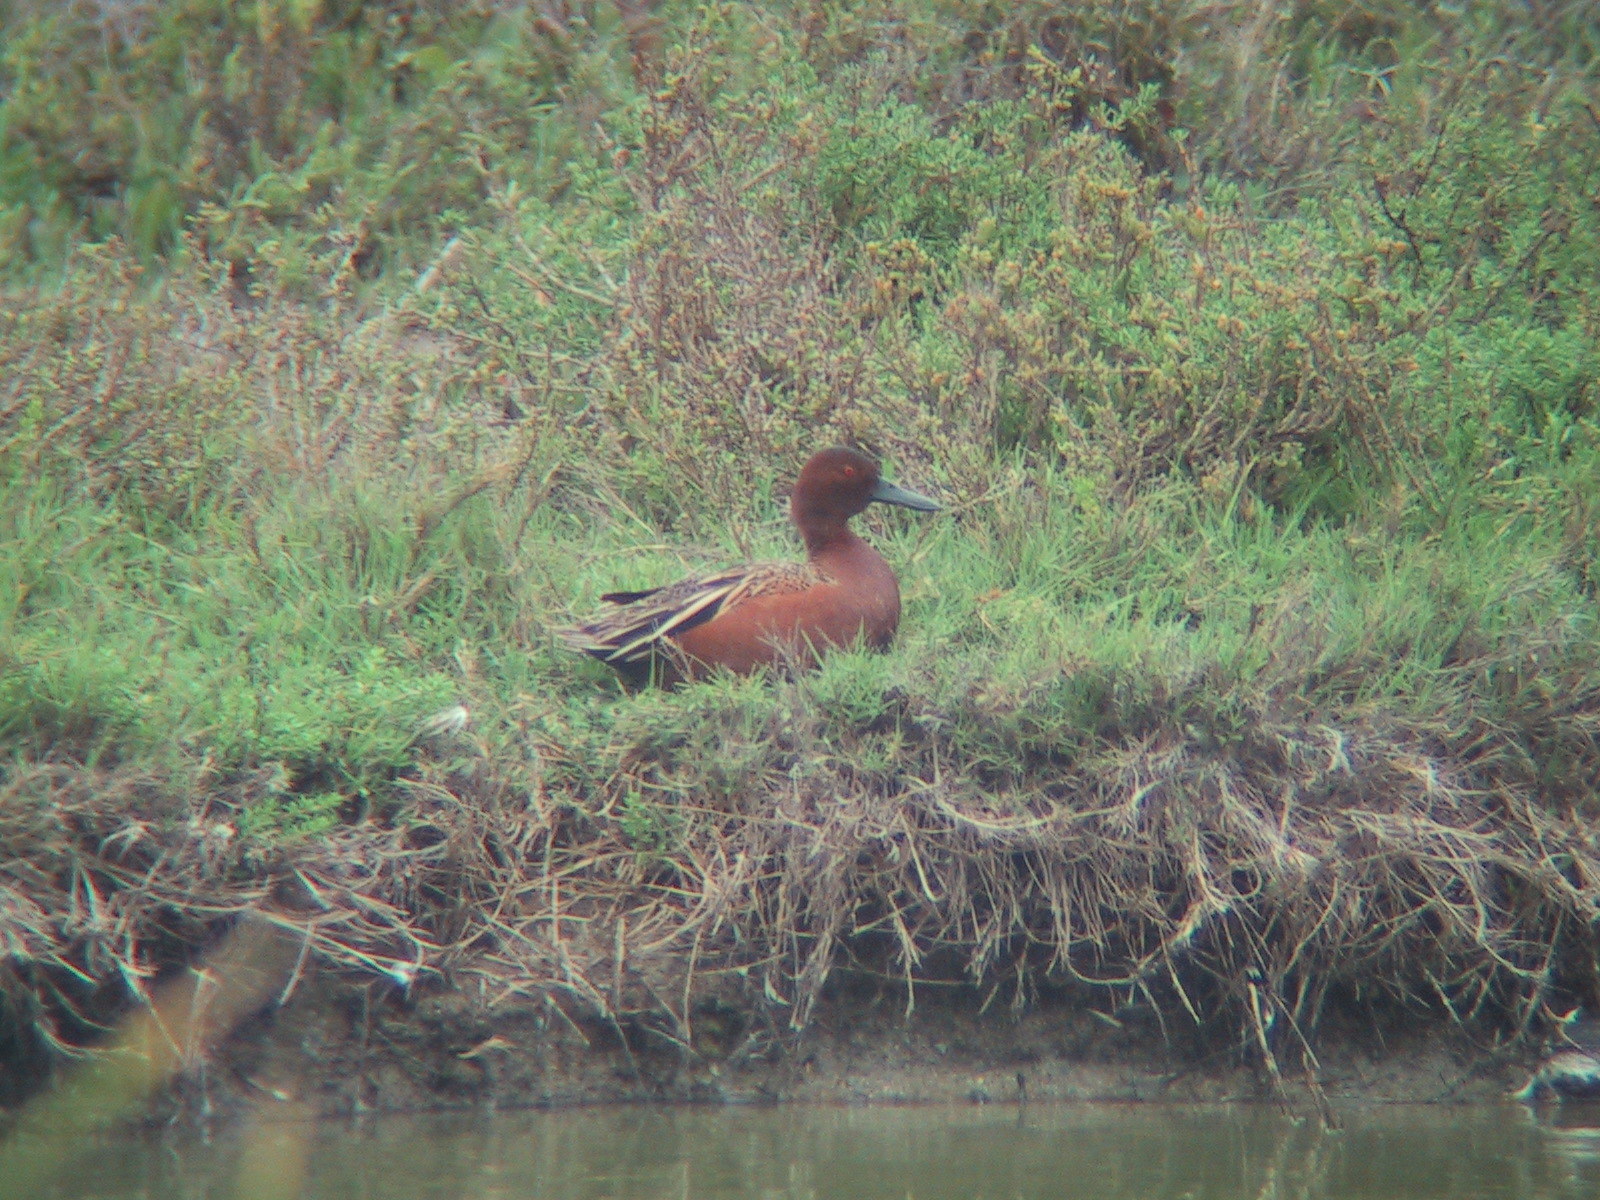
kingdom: Animalia
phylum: Chordata
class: Aves
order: Anseriformes
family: Anatidae
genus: Spatula
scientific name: Spatula cyanoptera
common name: Cinnamon teal
